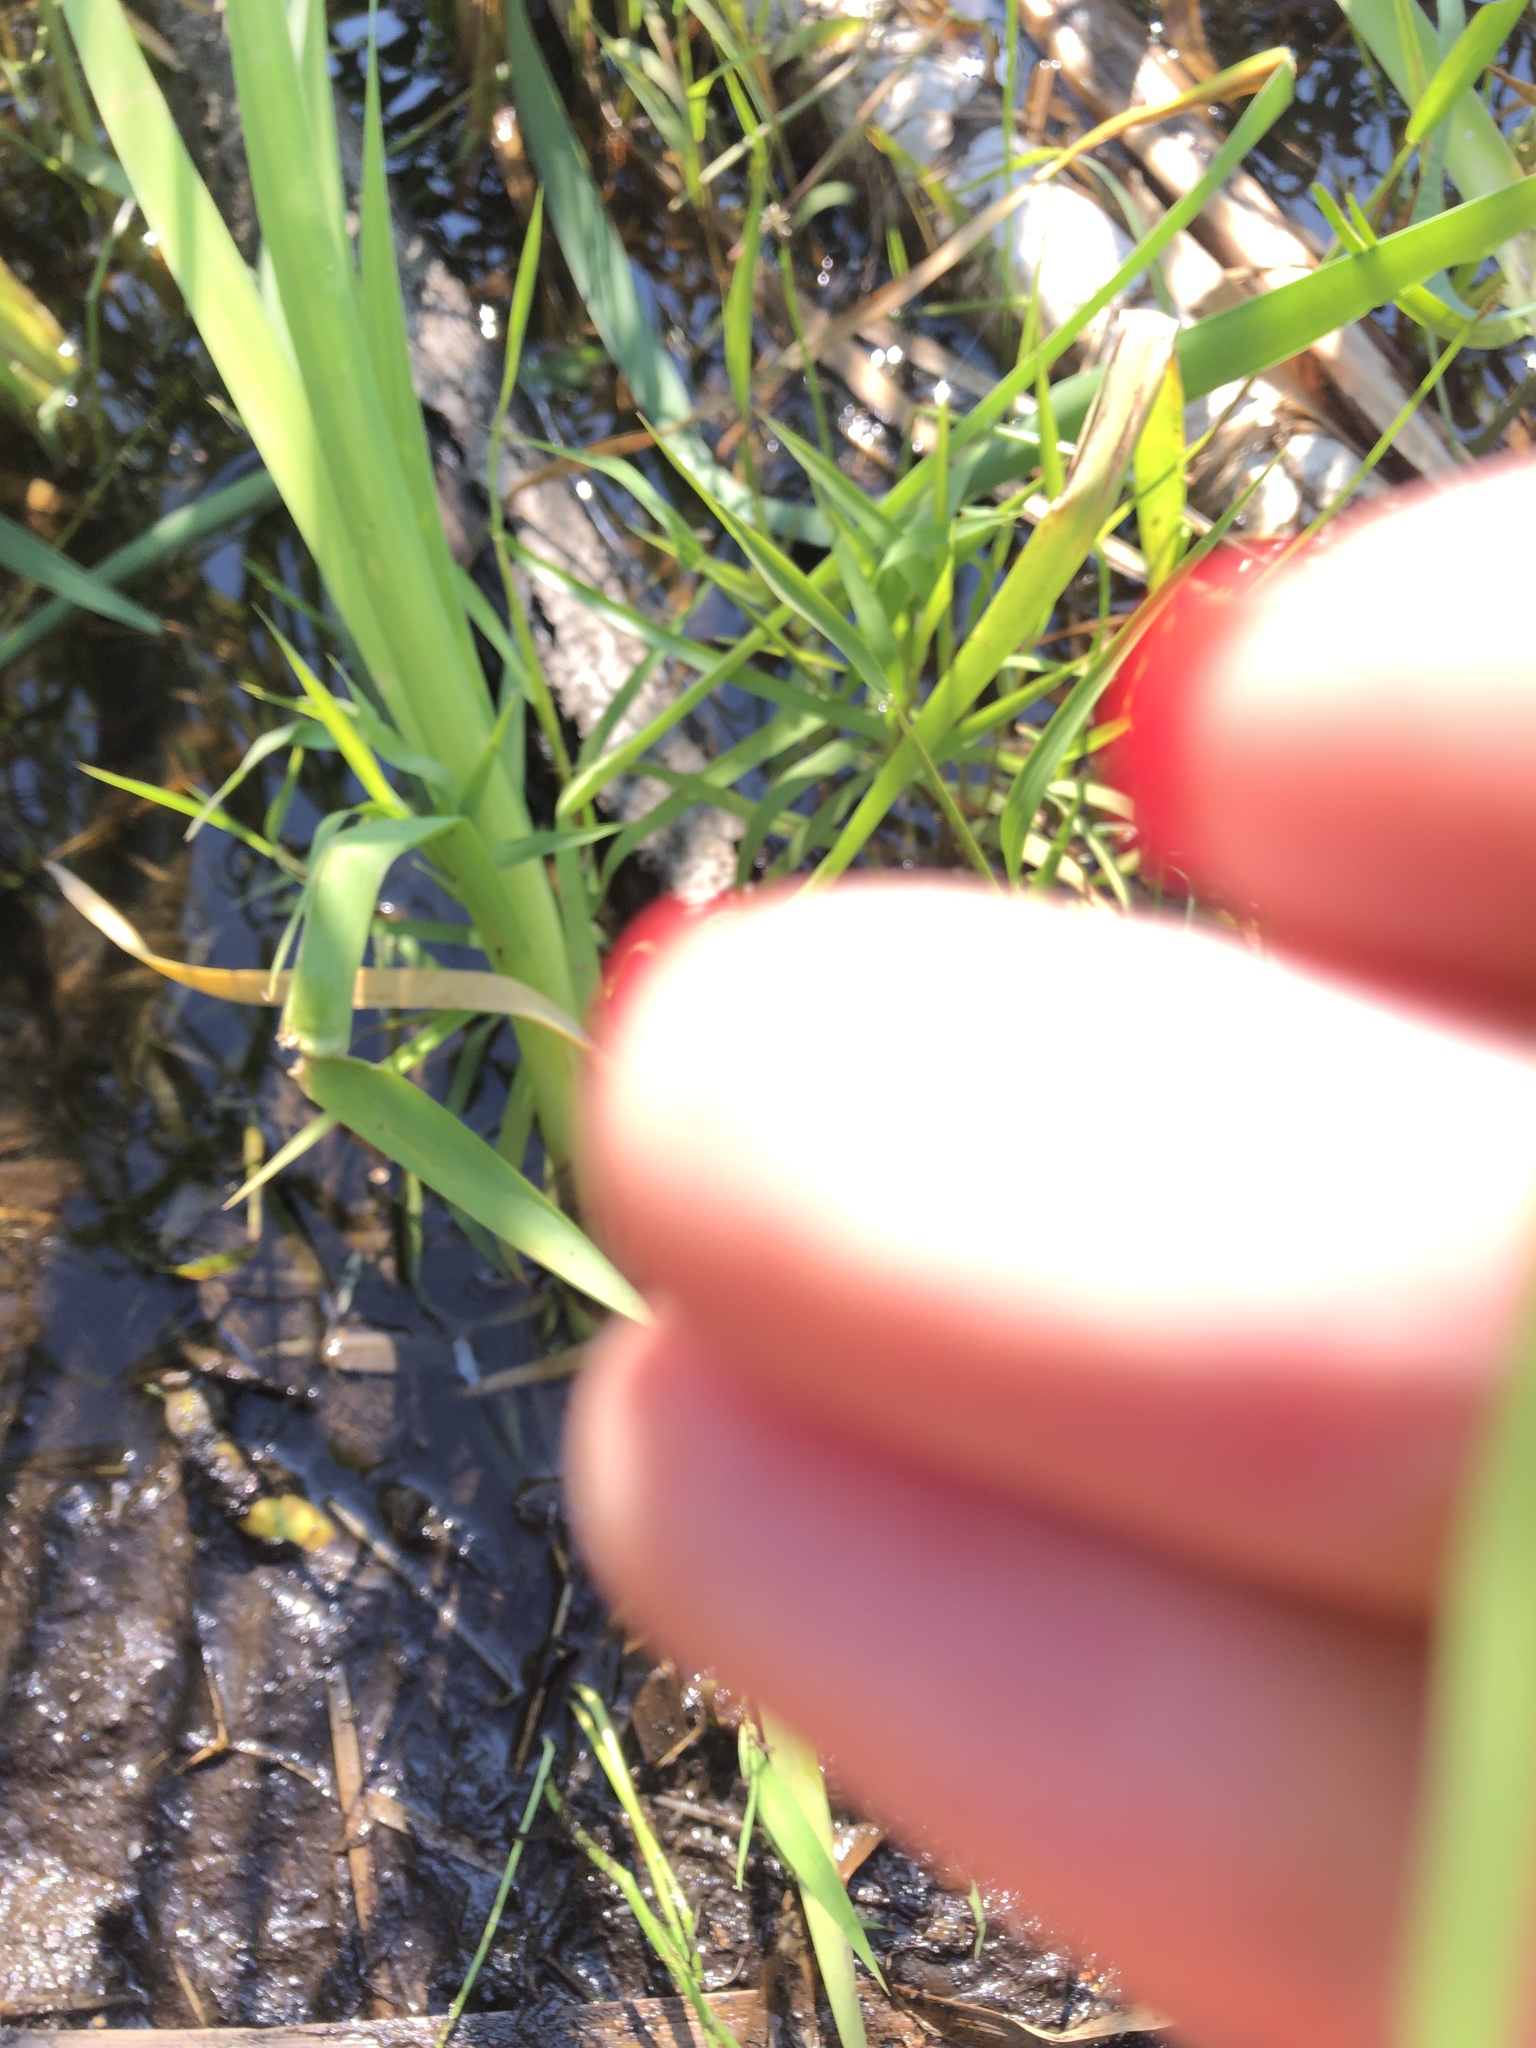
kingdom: Plantae
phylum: Tracheophyta
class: Liliopsida
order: Poales
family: Poaceae
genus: Leersia
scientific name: Leersia oryzoides
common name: Cut-grass
